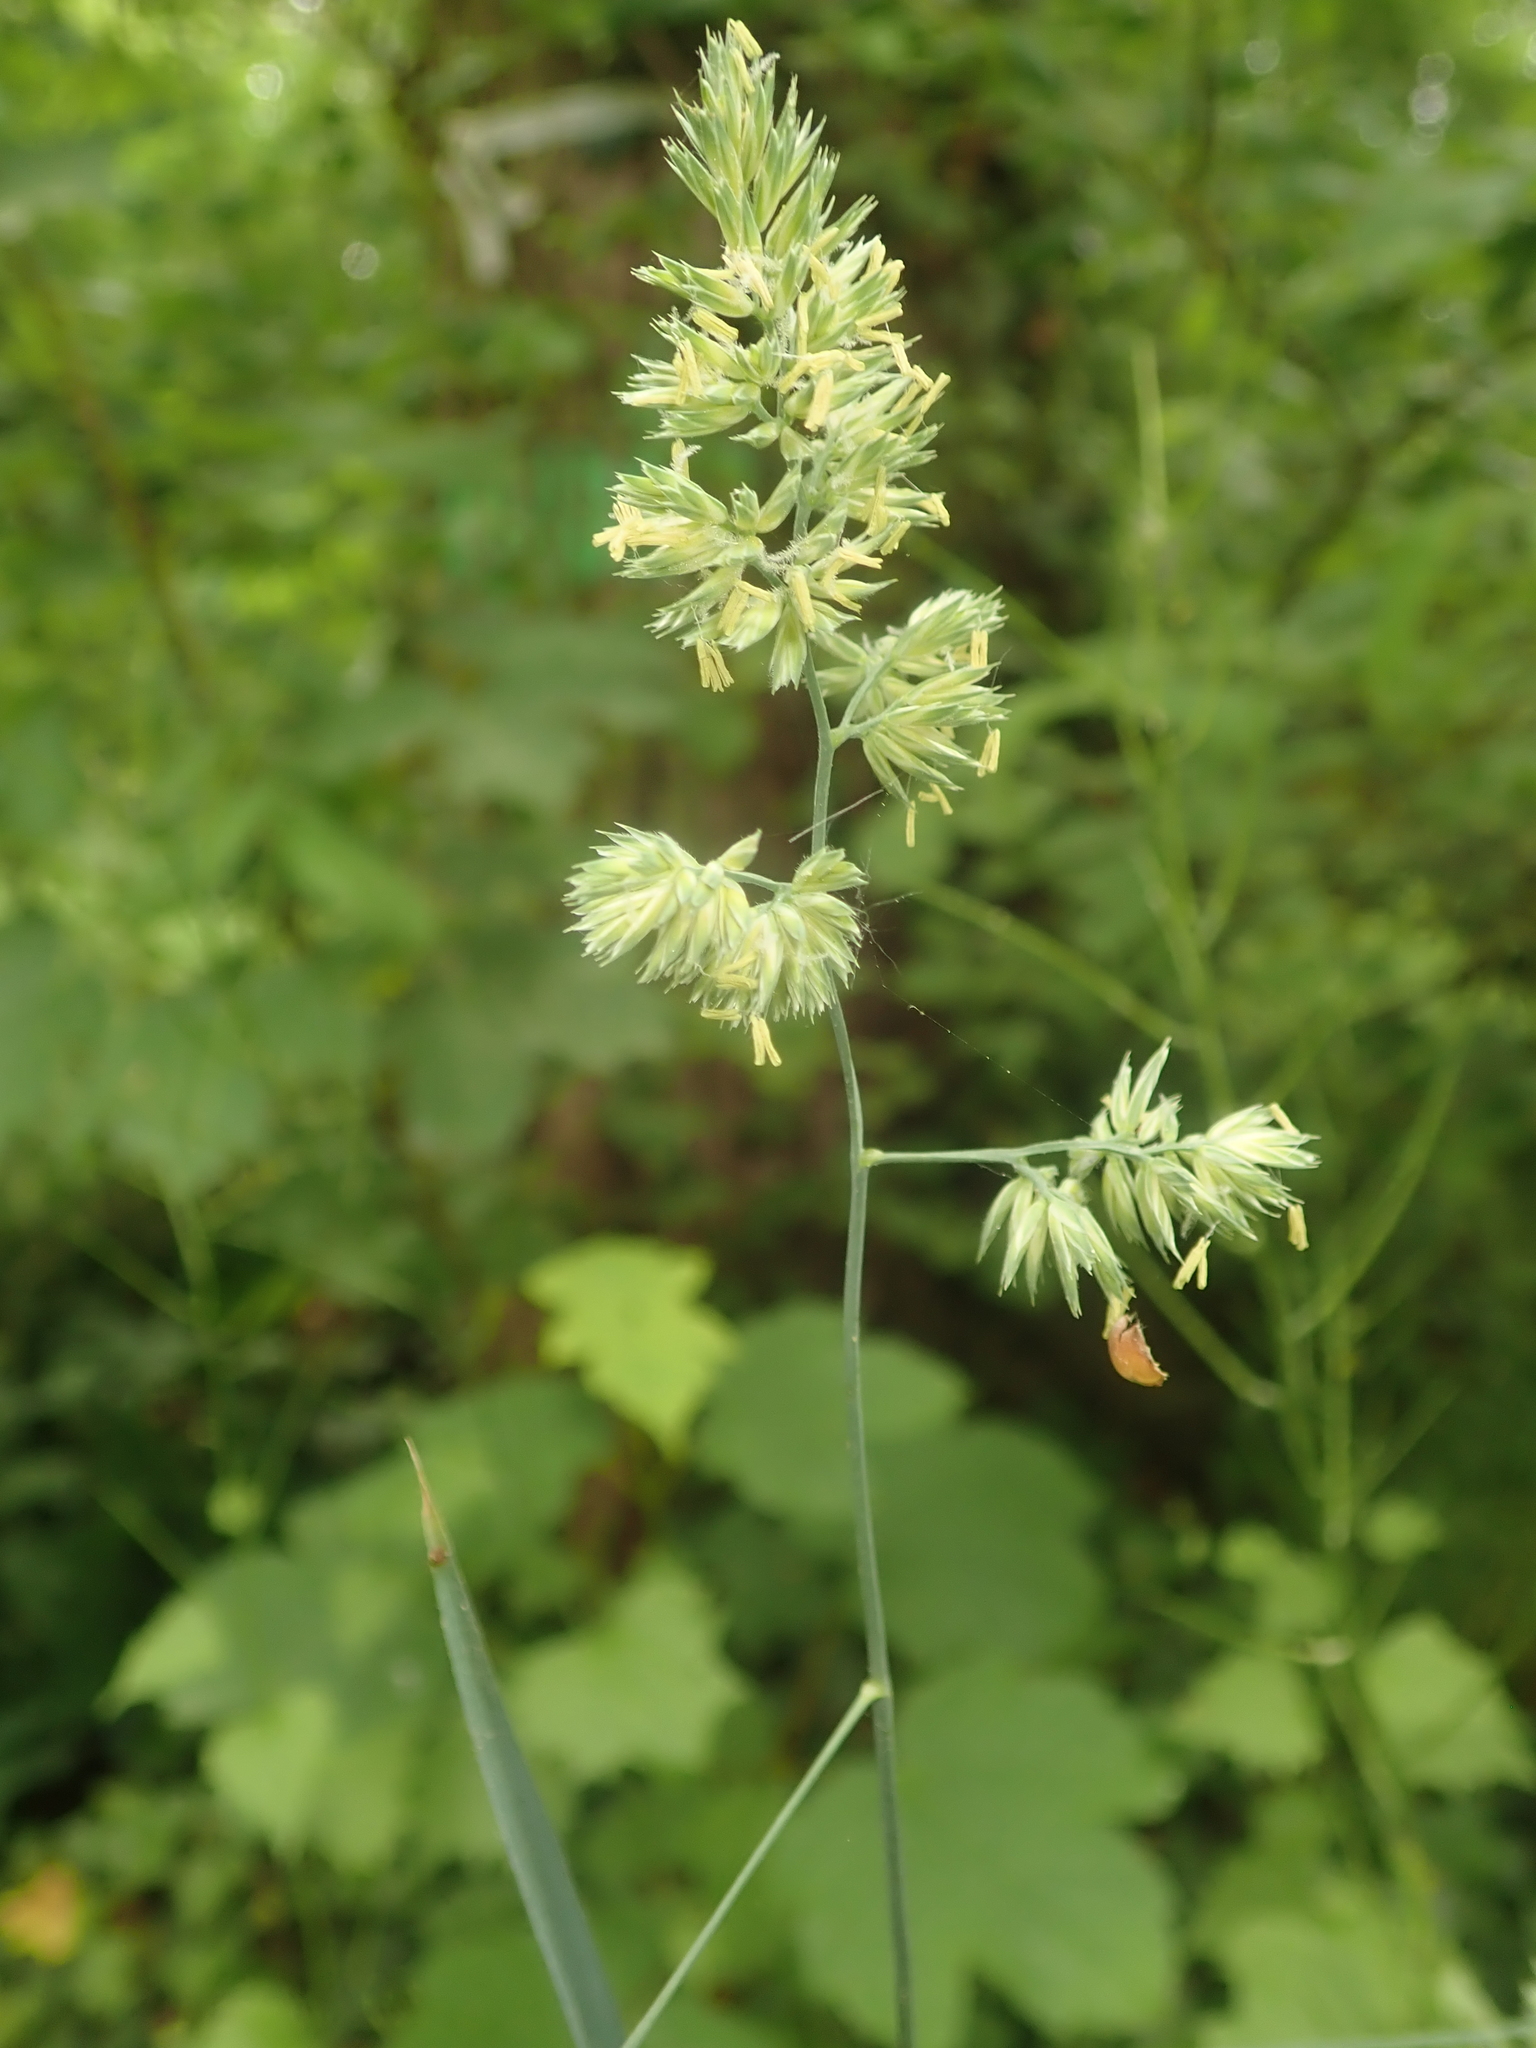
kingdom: Plantae
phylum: Tracheophyta
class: Liliopsida
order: Poales
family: Poaceae
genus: Dactylis
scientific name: Dactylis glomerata
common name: Orchardgrass
